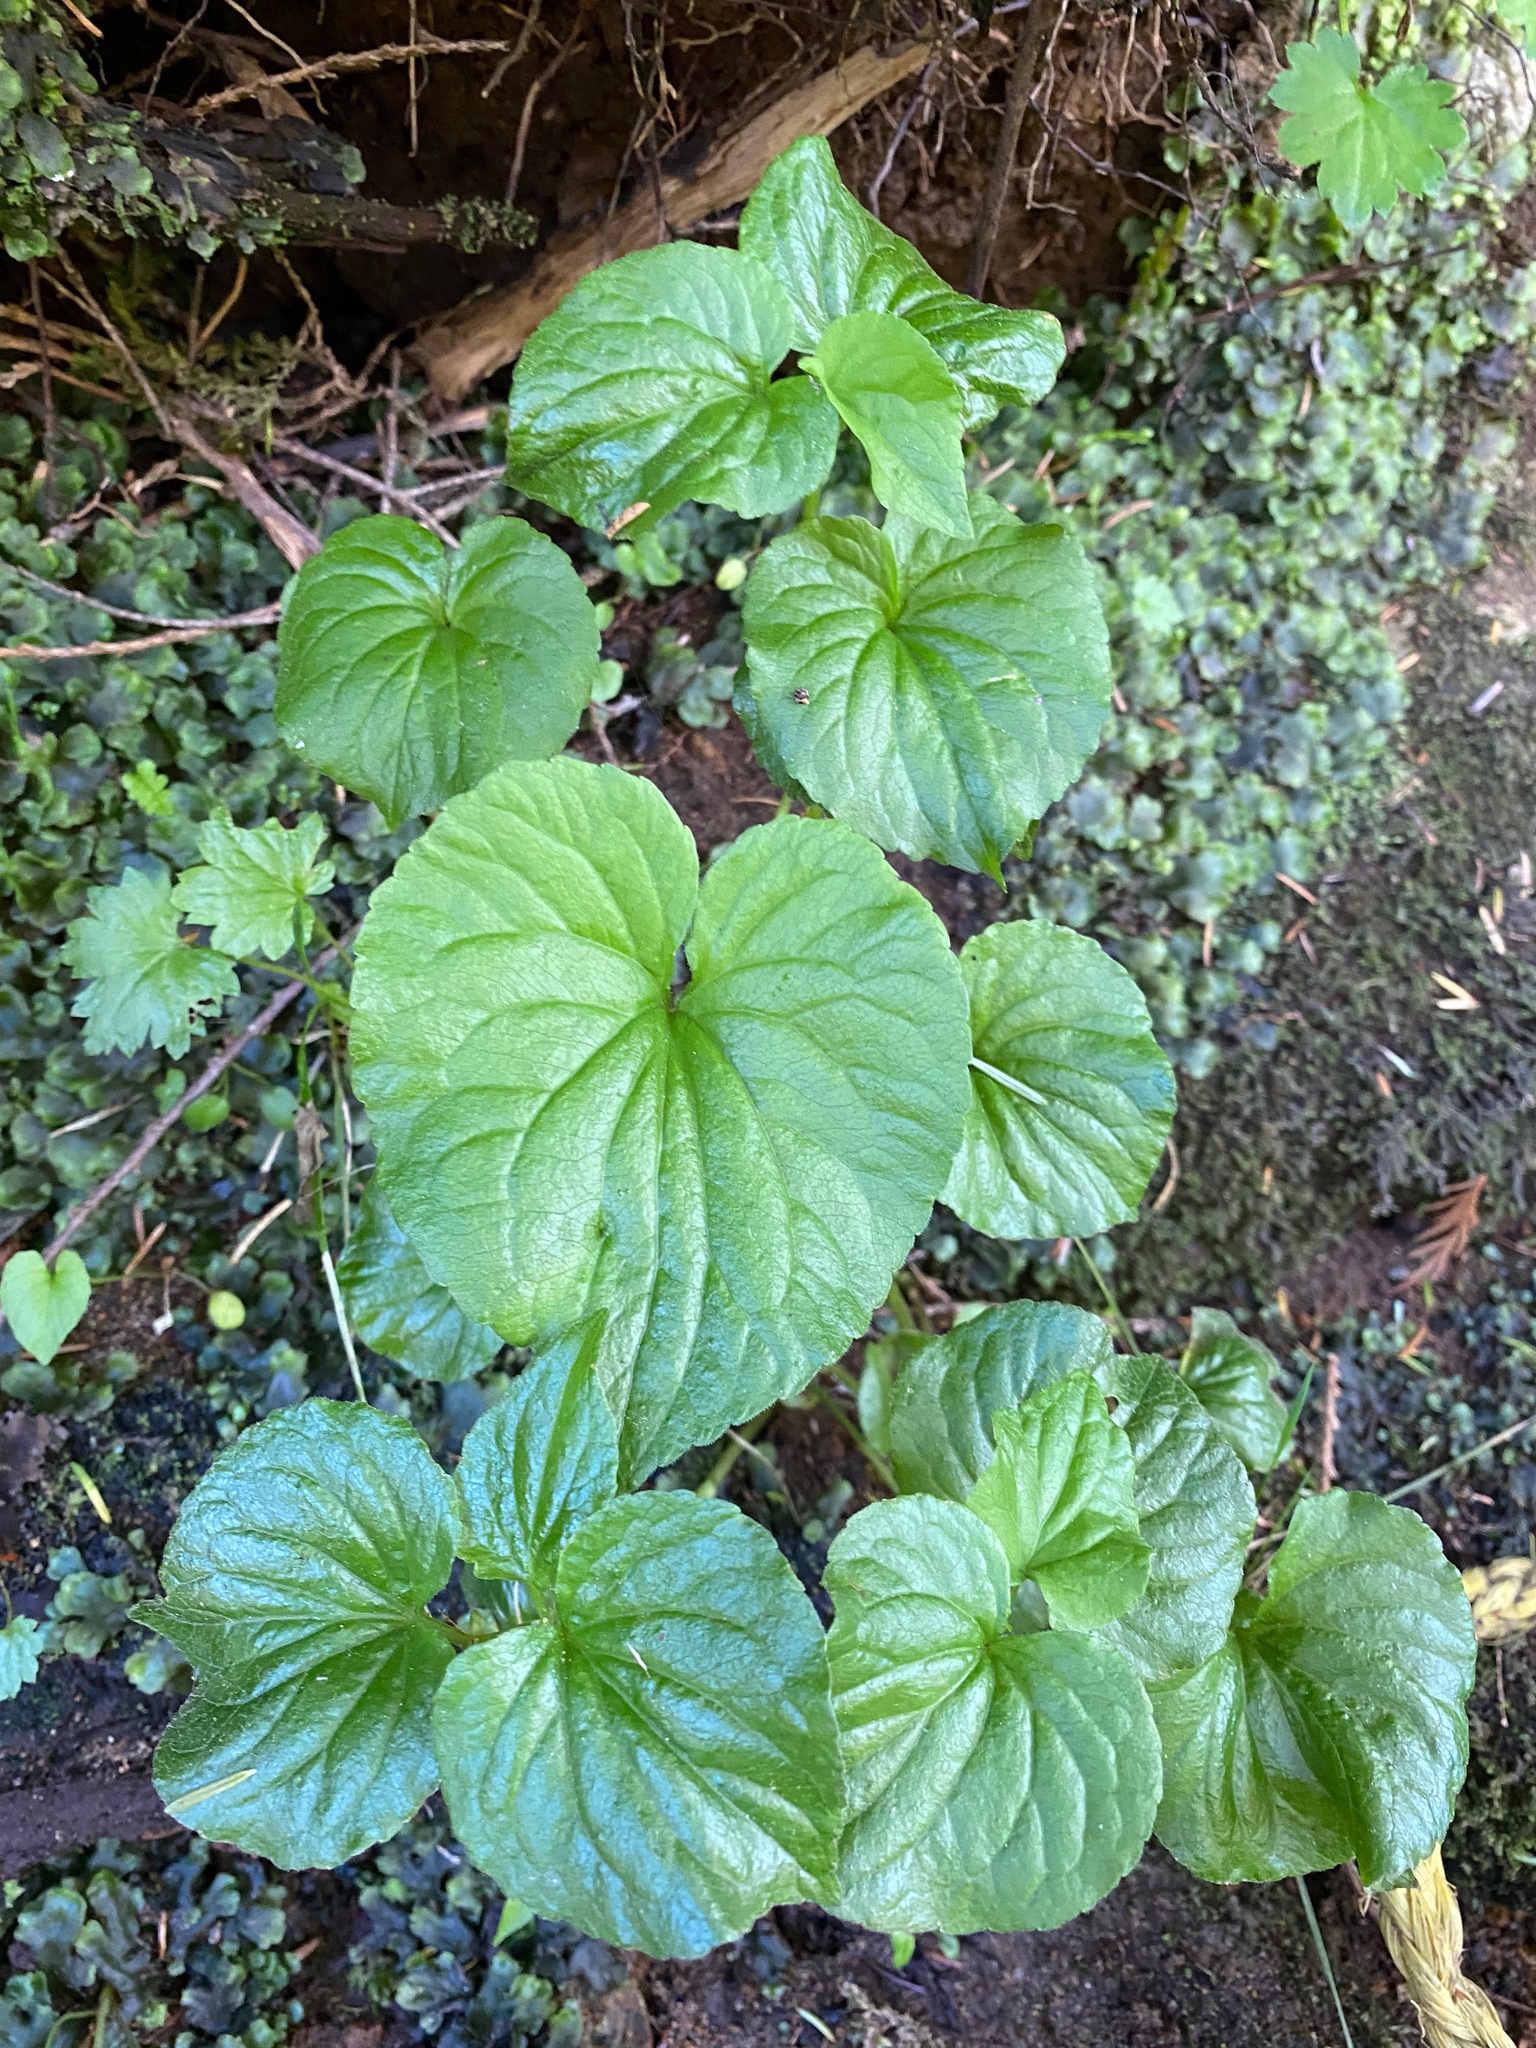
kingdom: Plantae
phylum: Tracheophyta
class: Magnoliopsida
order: Malpighiales
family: Violaceae
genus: Viola
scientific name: Viola glabella
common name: Stream violet
